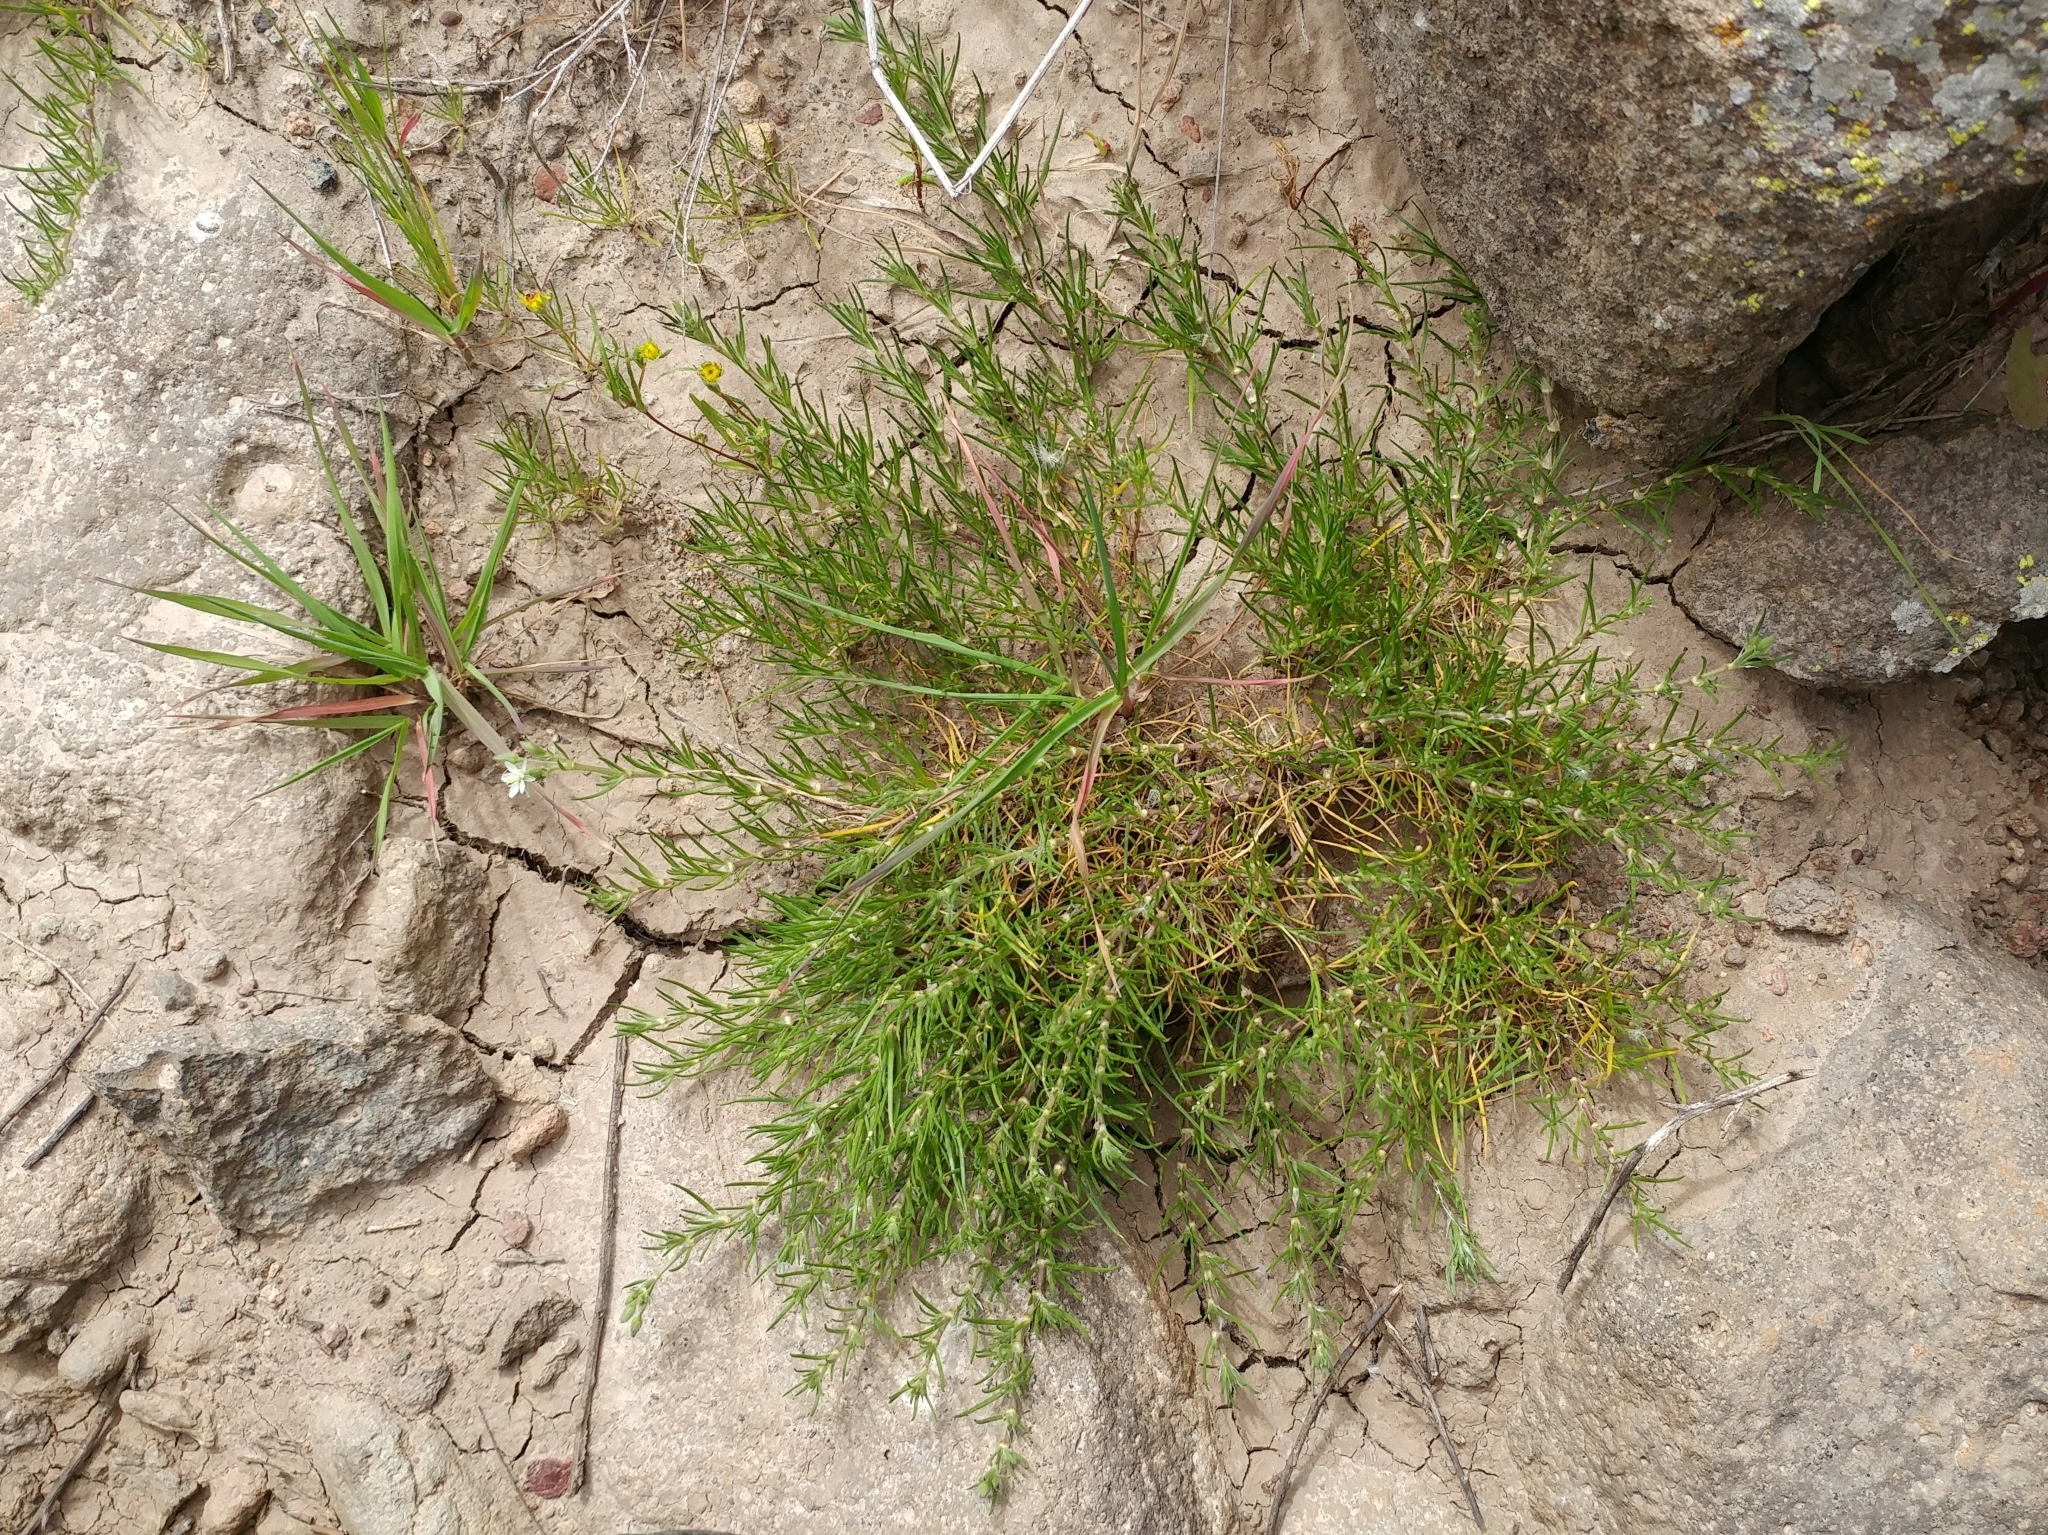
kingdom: Plantae
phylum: Tracheophyta
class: Magnoliopsida
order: Caryophyllales
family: Caryophyllaceae
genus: Spergularia
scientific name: Spergularia villosa
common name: Hairy sandspurry
